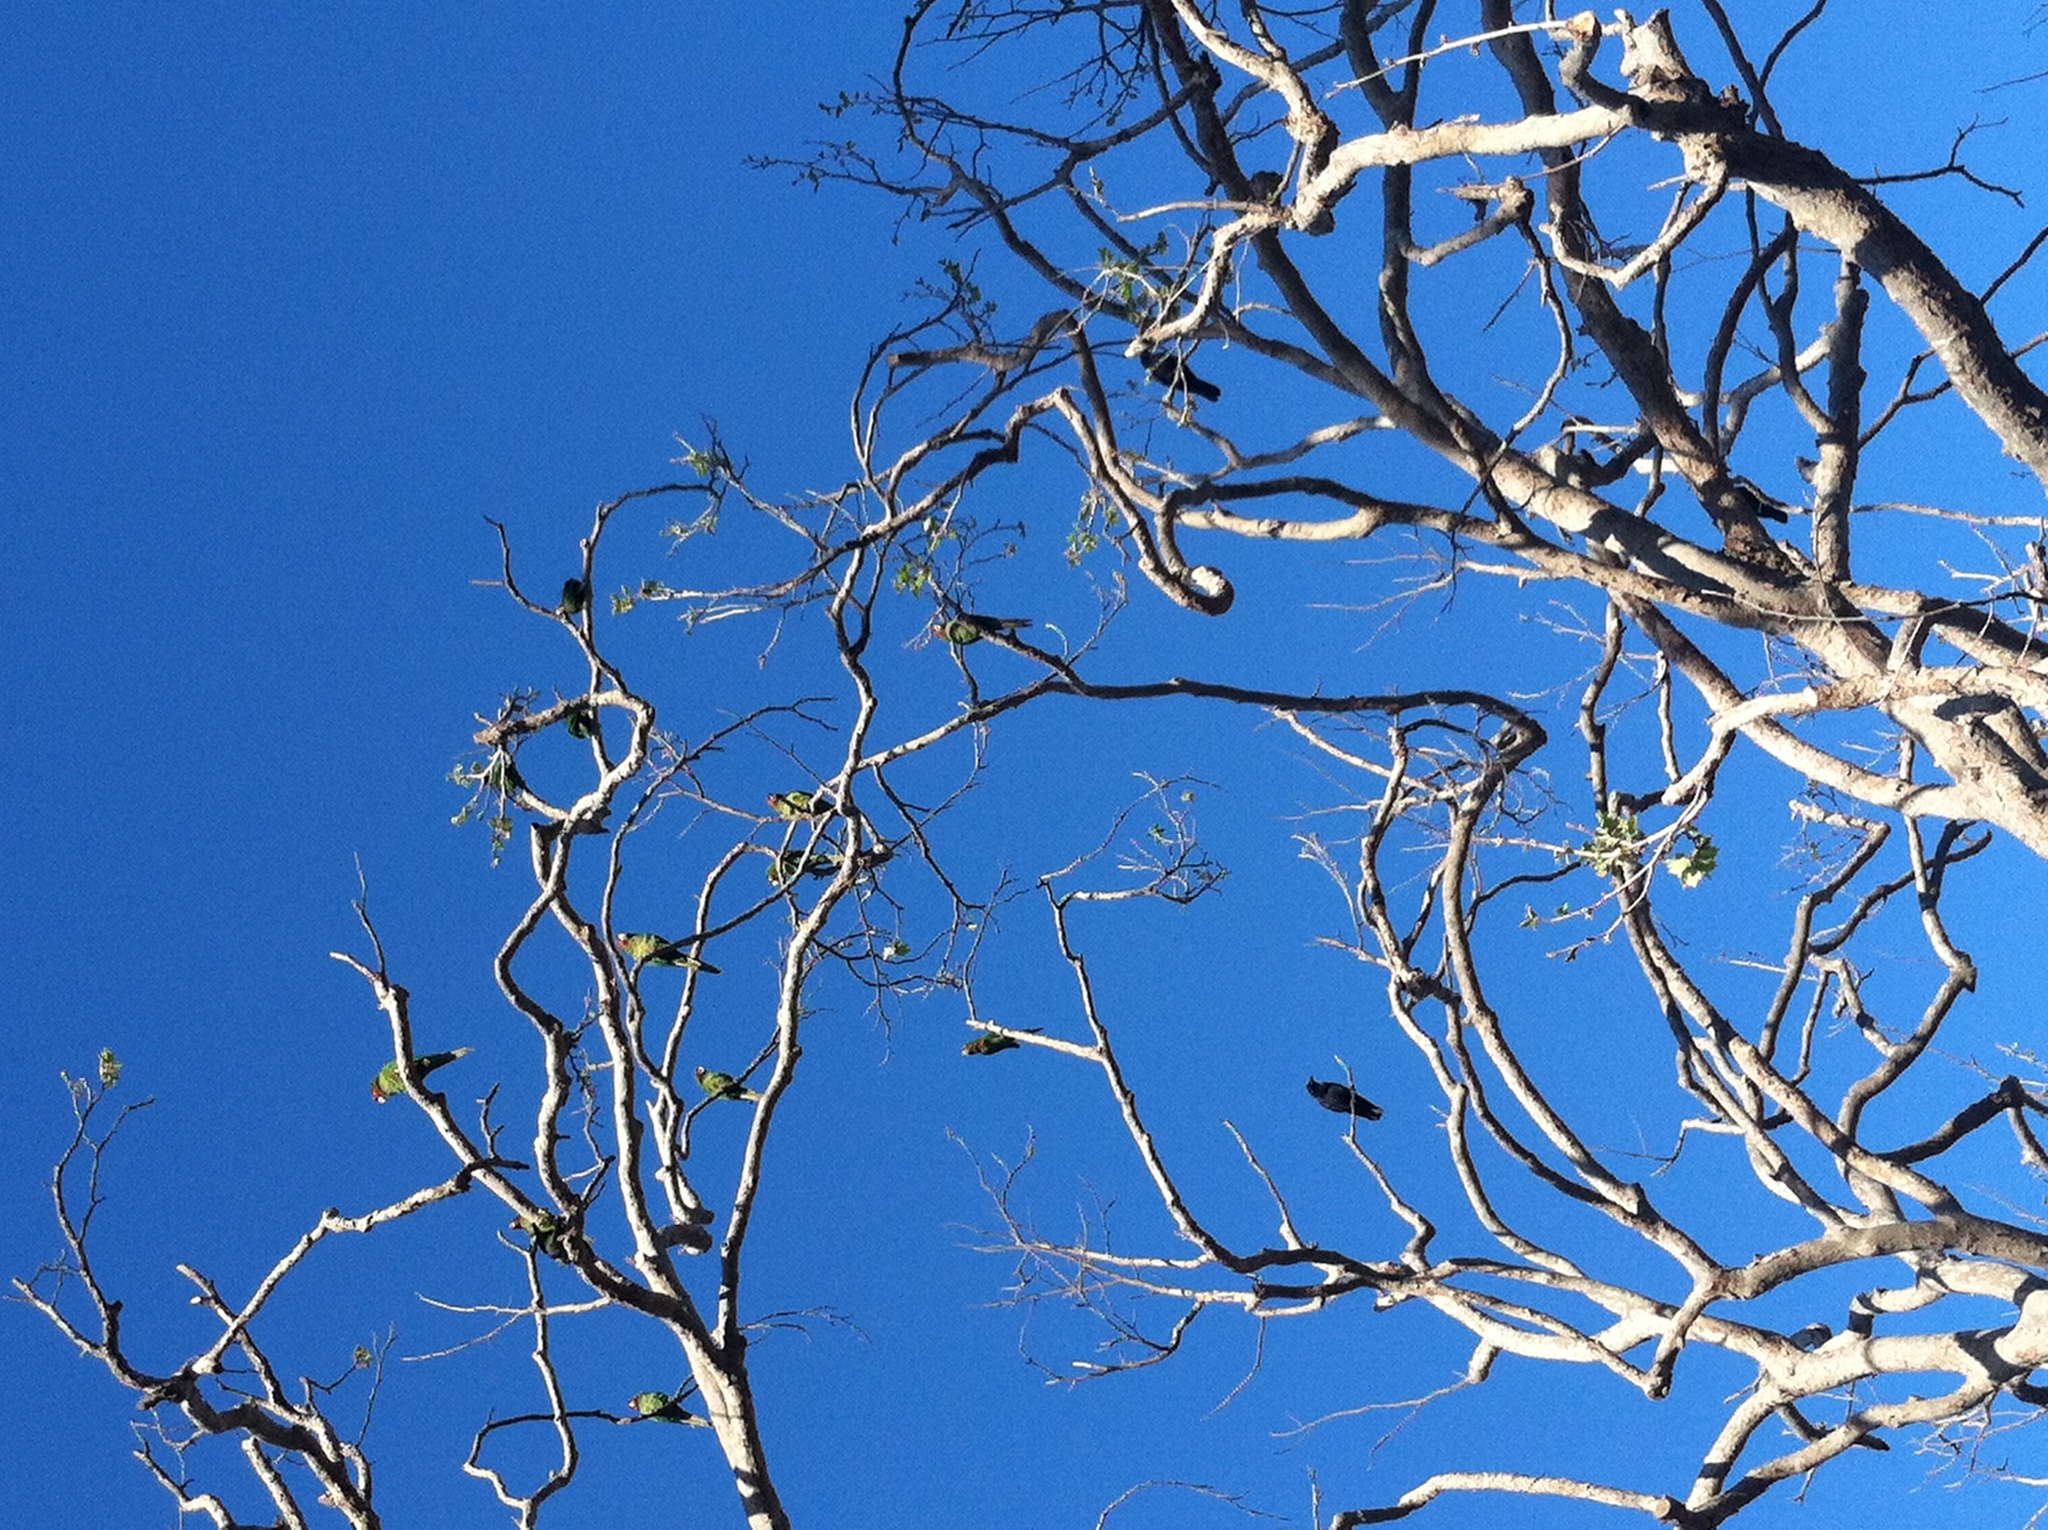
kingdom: Animalia
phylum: Chordata
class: Aves
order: Psittaciformes
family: Psittacidae
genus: Aratinga
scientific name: Aratinga mitrata
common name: Mitred parakeet
